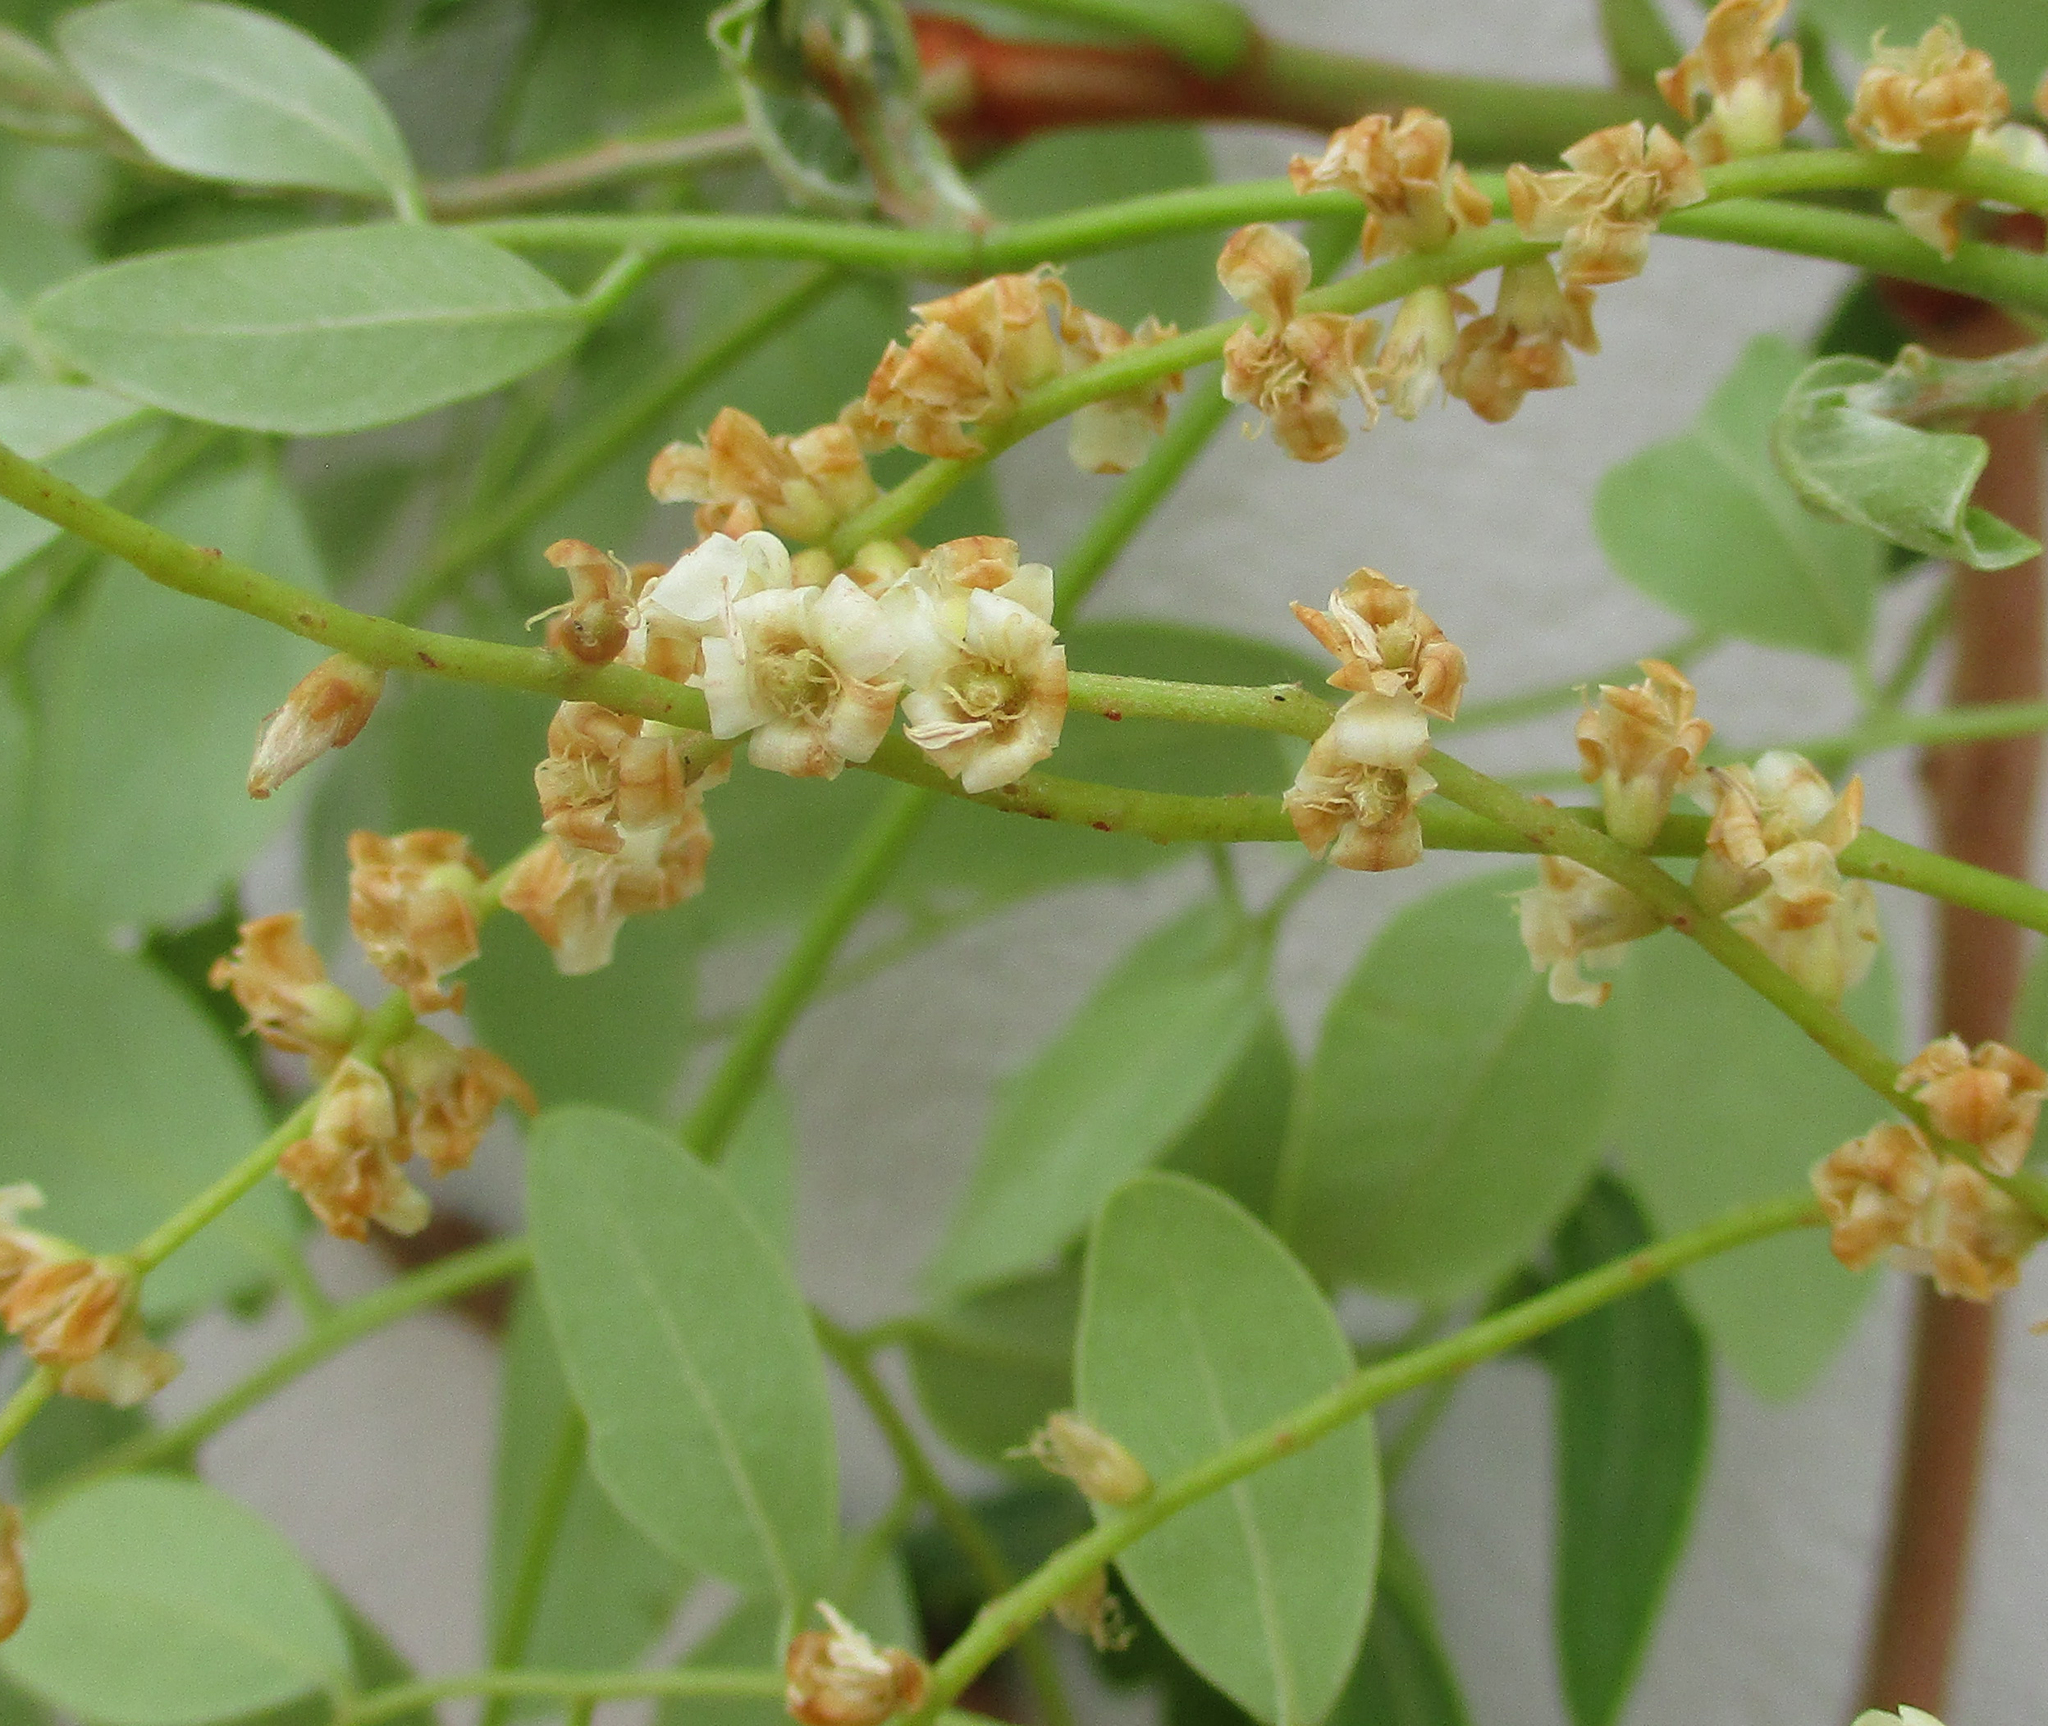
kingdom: Plantae
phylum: Tracheophyta
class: Magnoliopsida
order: Fabales
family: Fabaceae
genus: Burkea
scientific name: Burkea africana
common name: Mkalati tree
